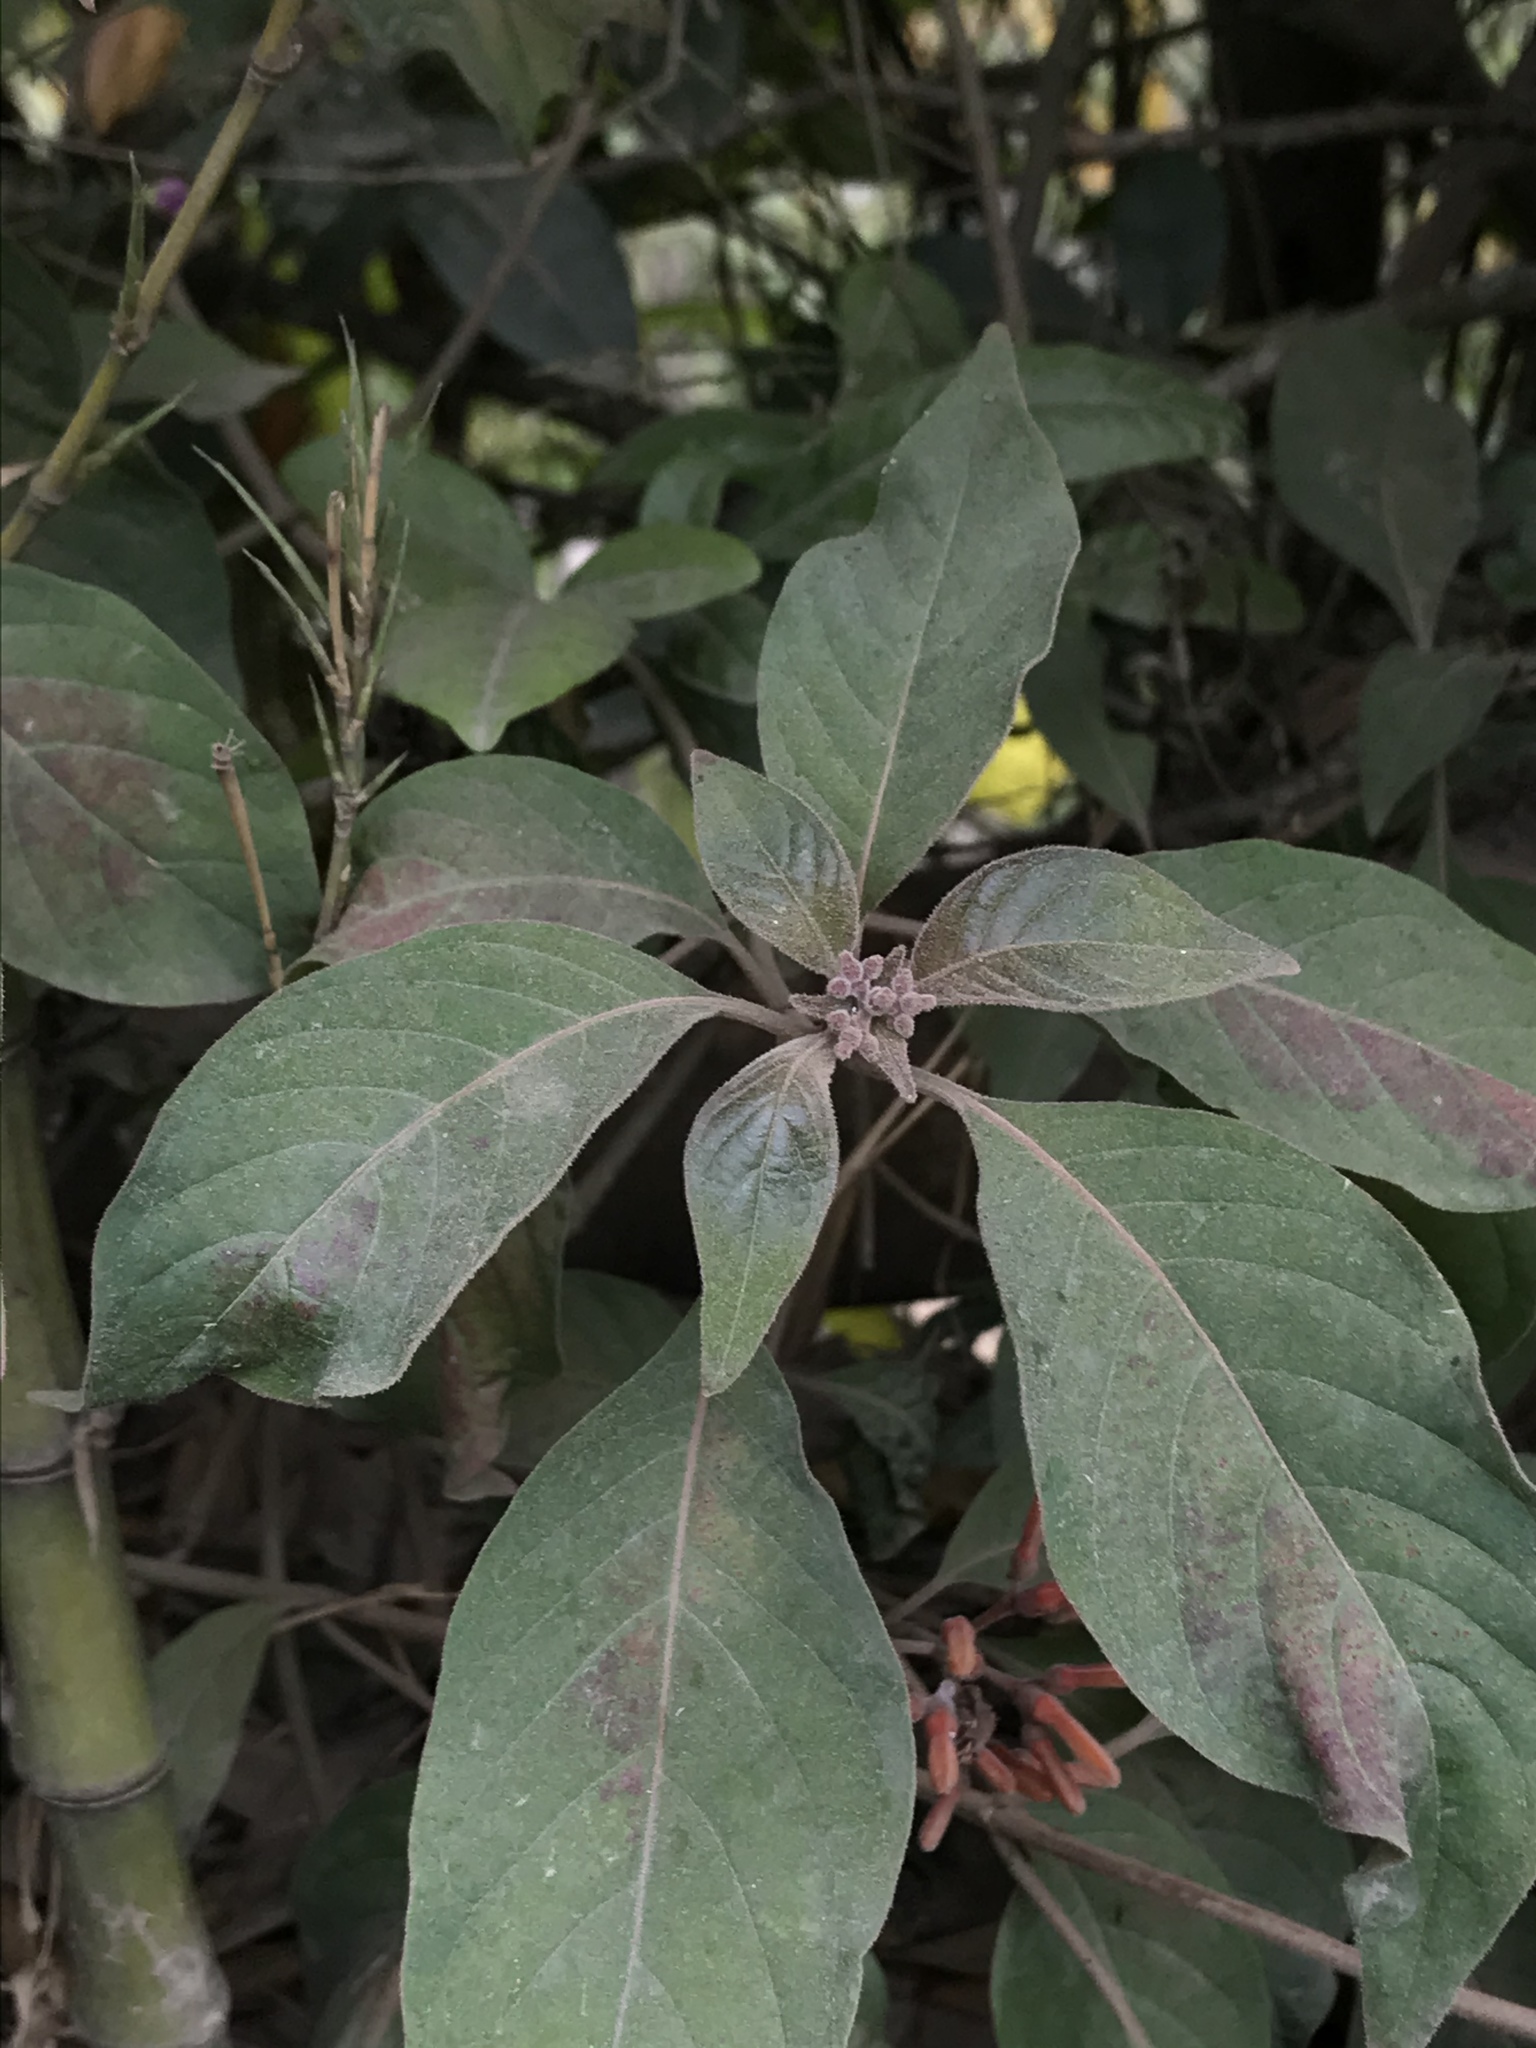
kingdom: Plantae
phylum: Tracheophyta
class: Magnoliopsida
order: Gentianales
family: Rubiaceae
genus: Hamelia
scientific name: Hamelia patens
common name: Redhead
